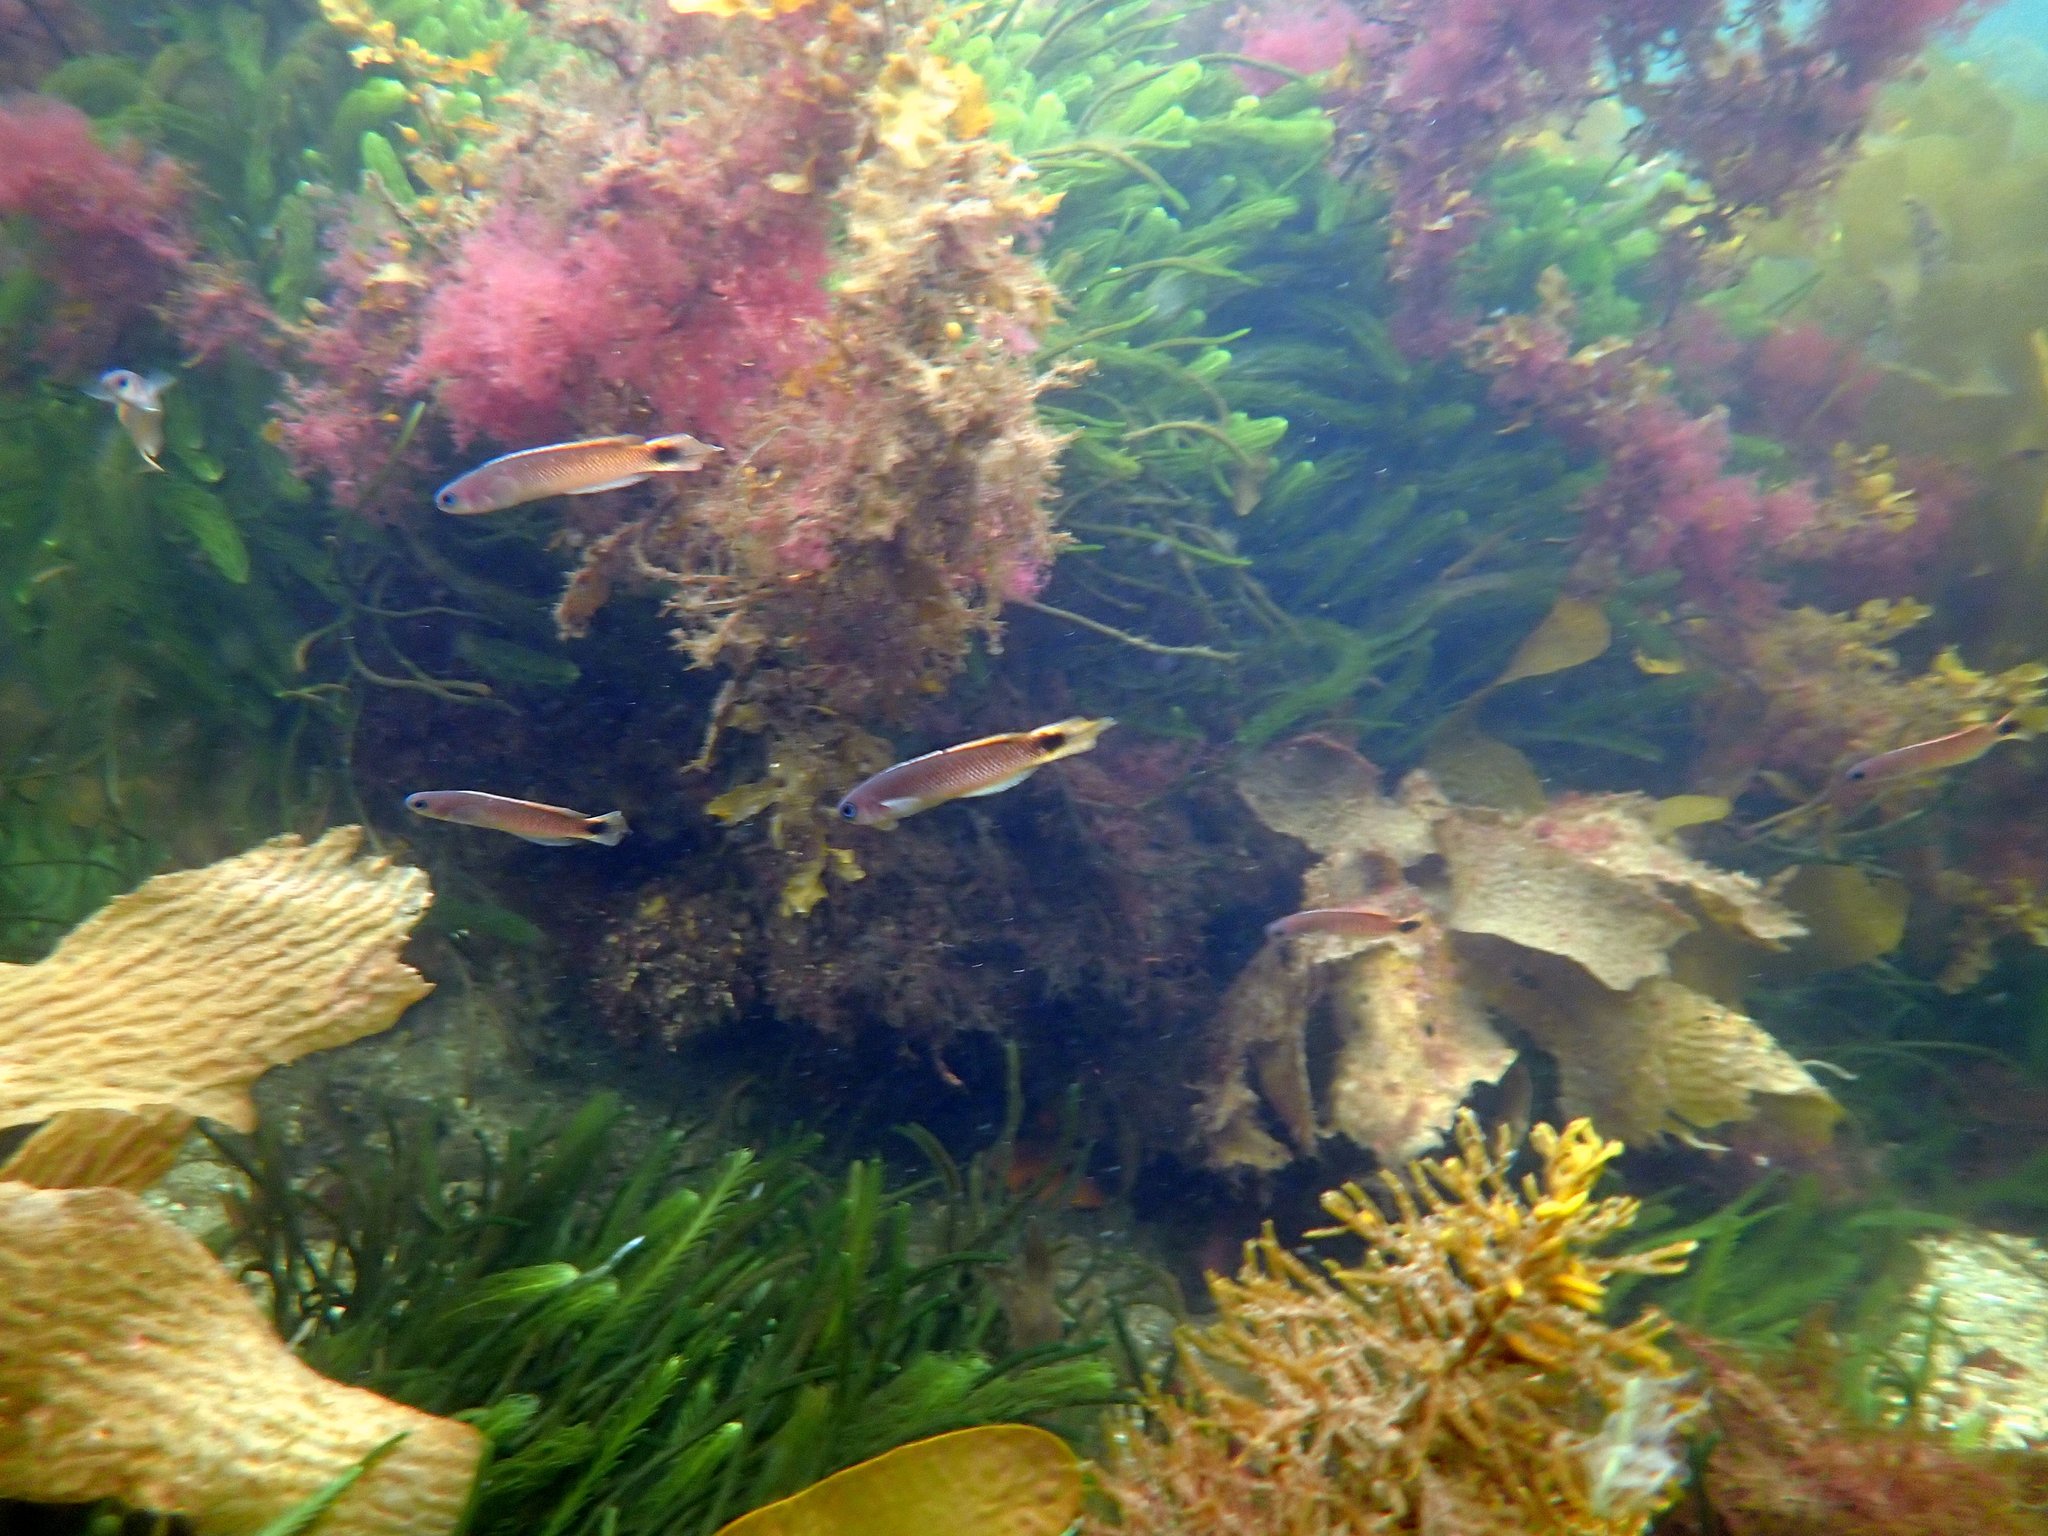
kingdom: Animalia
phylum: Chordata
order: Perciformes
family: Plesiopidae
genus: Trachinops
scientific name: Trachinops caudimaculatus
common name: Blotched-tailed trachinops
